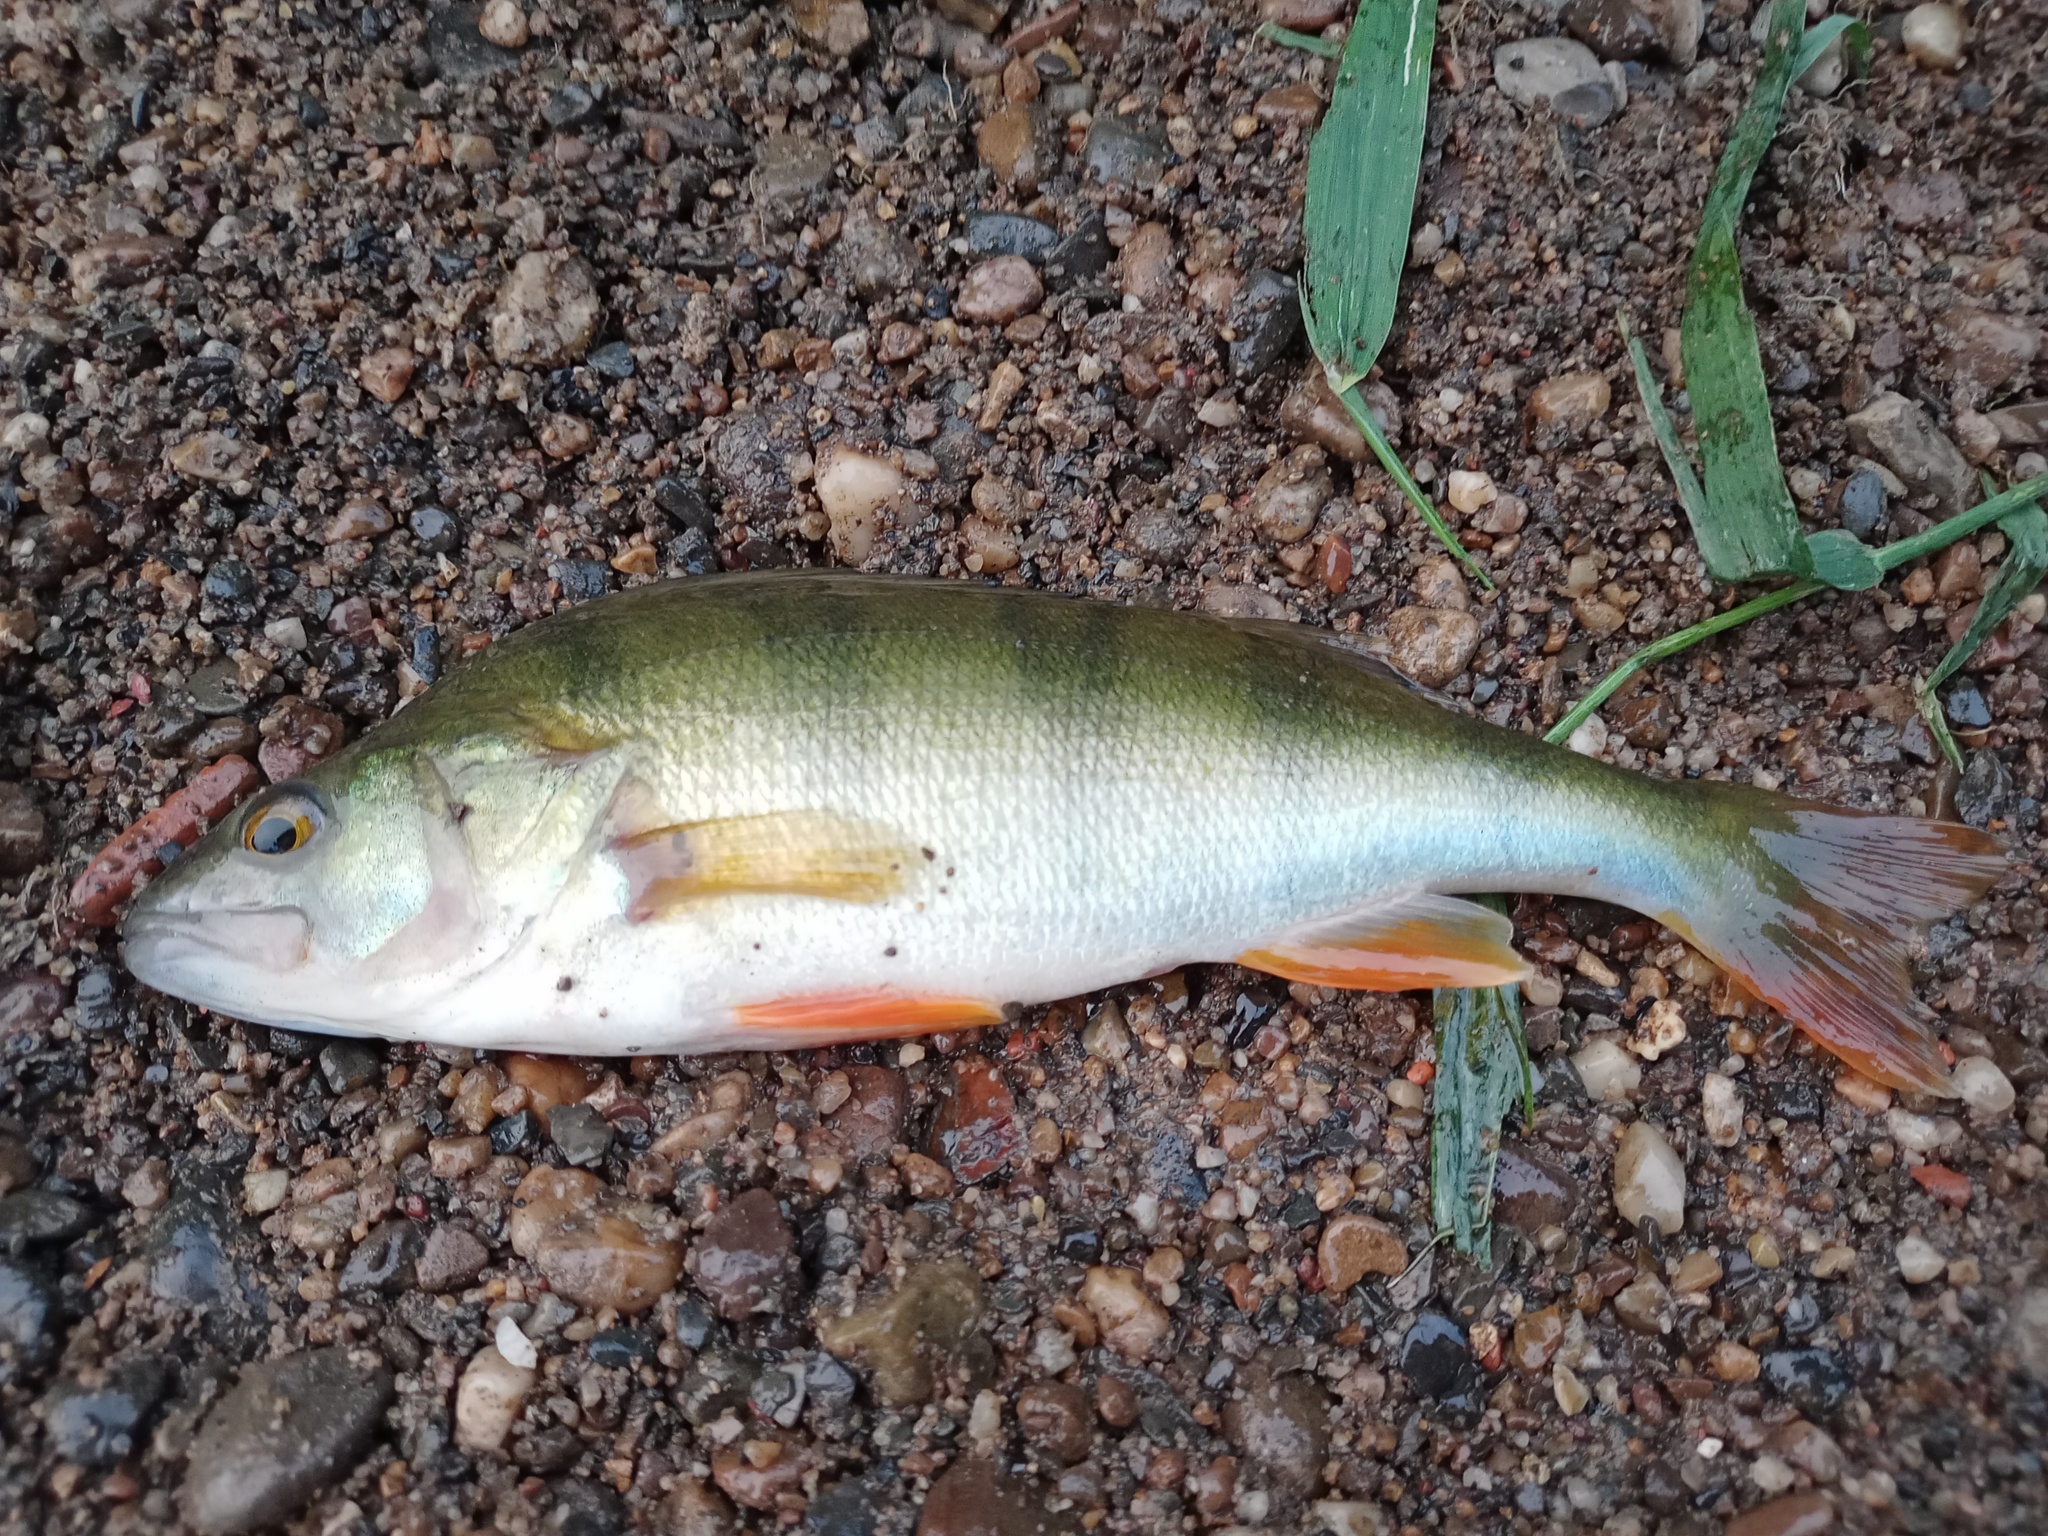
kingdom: Animalia
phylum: Chordata
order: Perciformes
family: Percidae
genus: Perca
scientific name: Perca fluviatilis
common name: Perch
